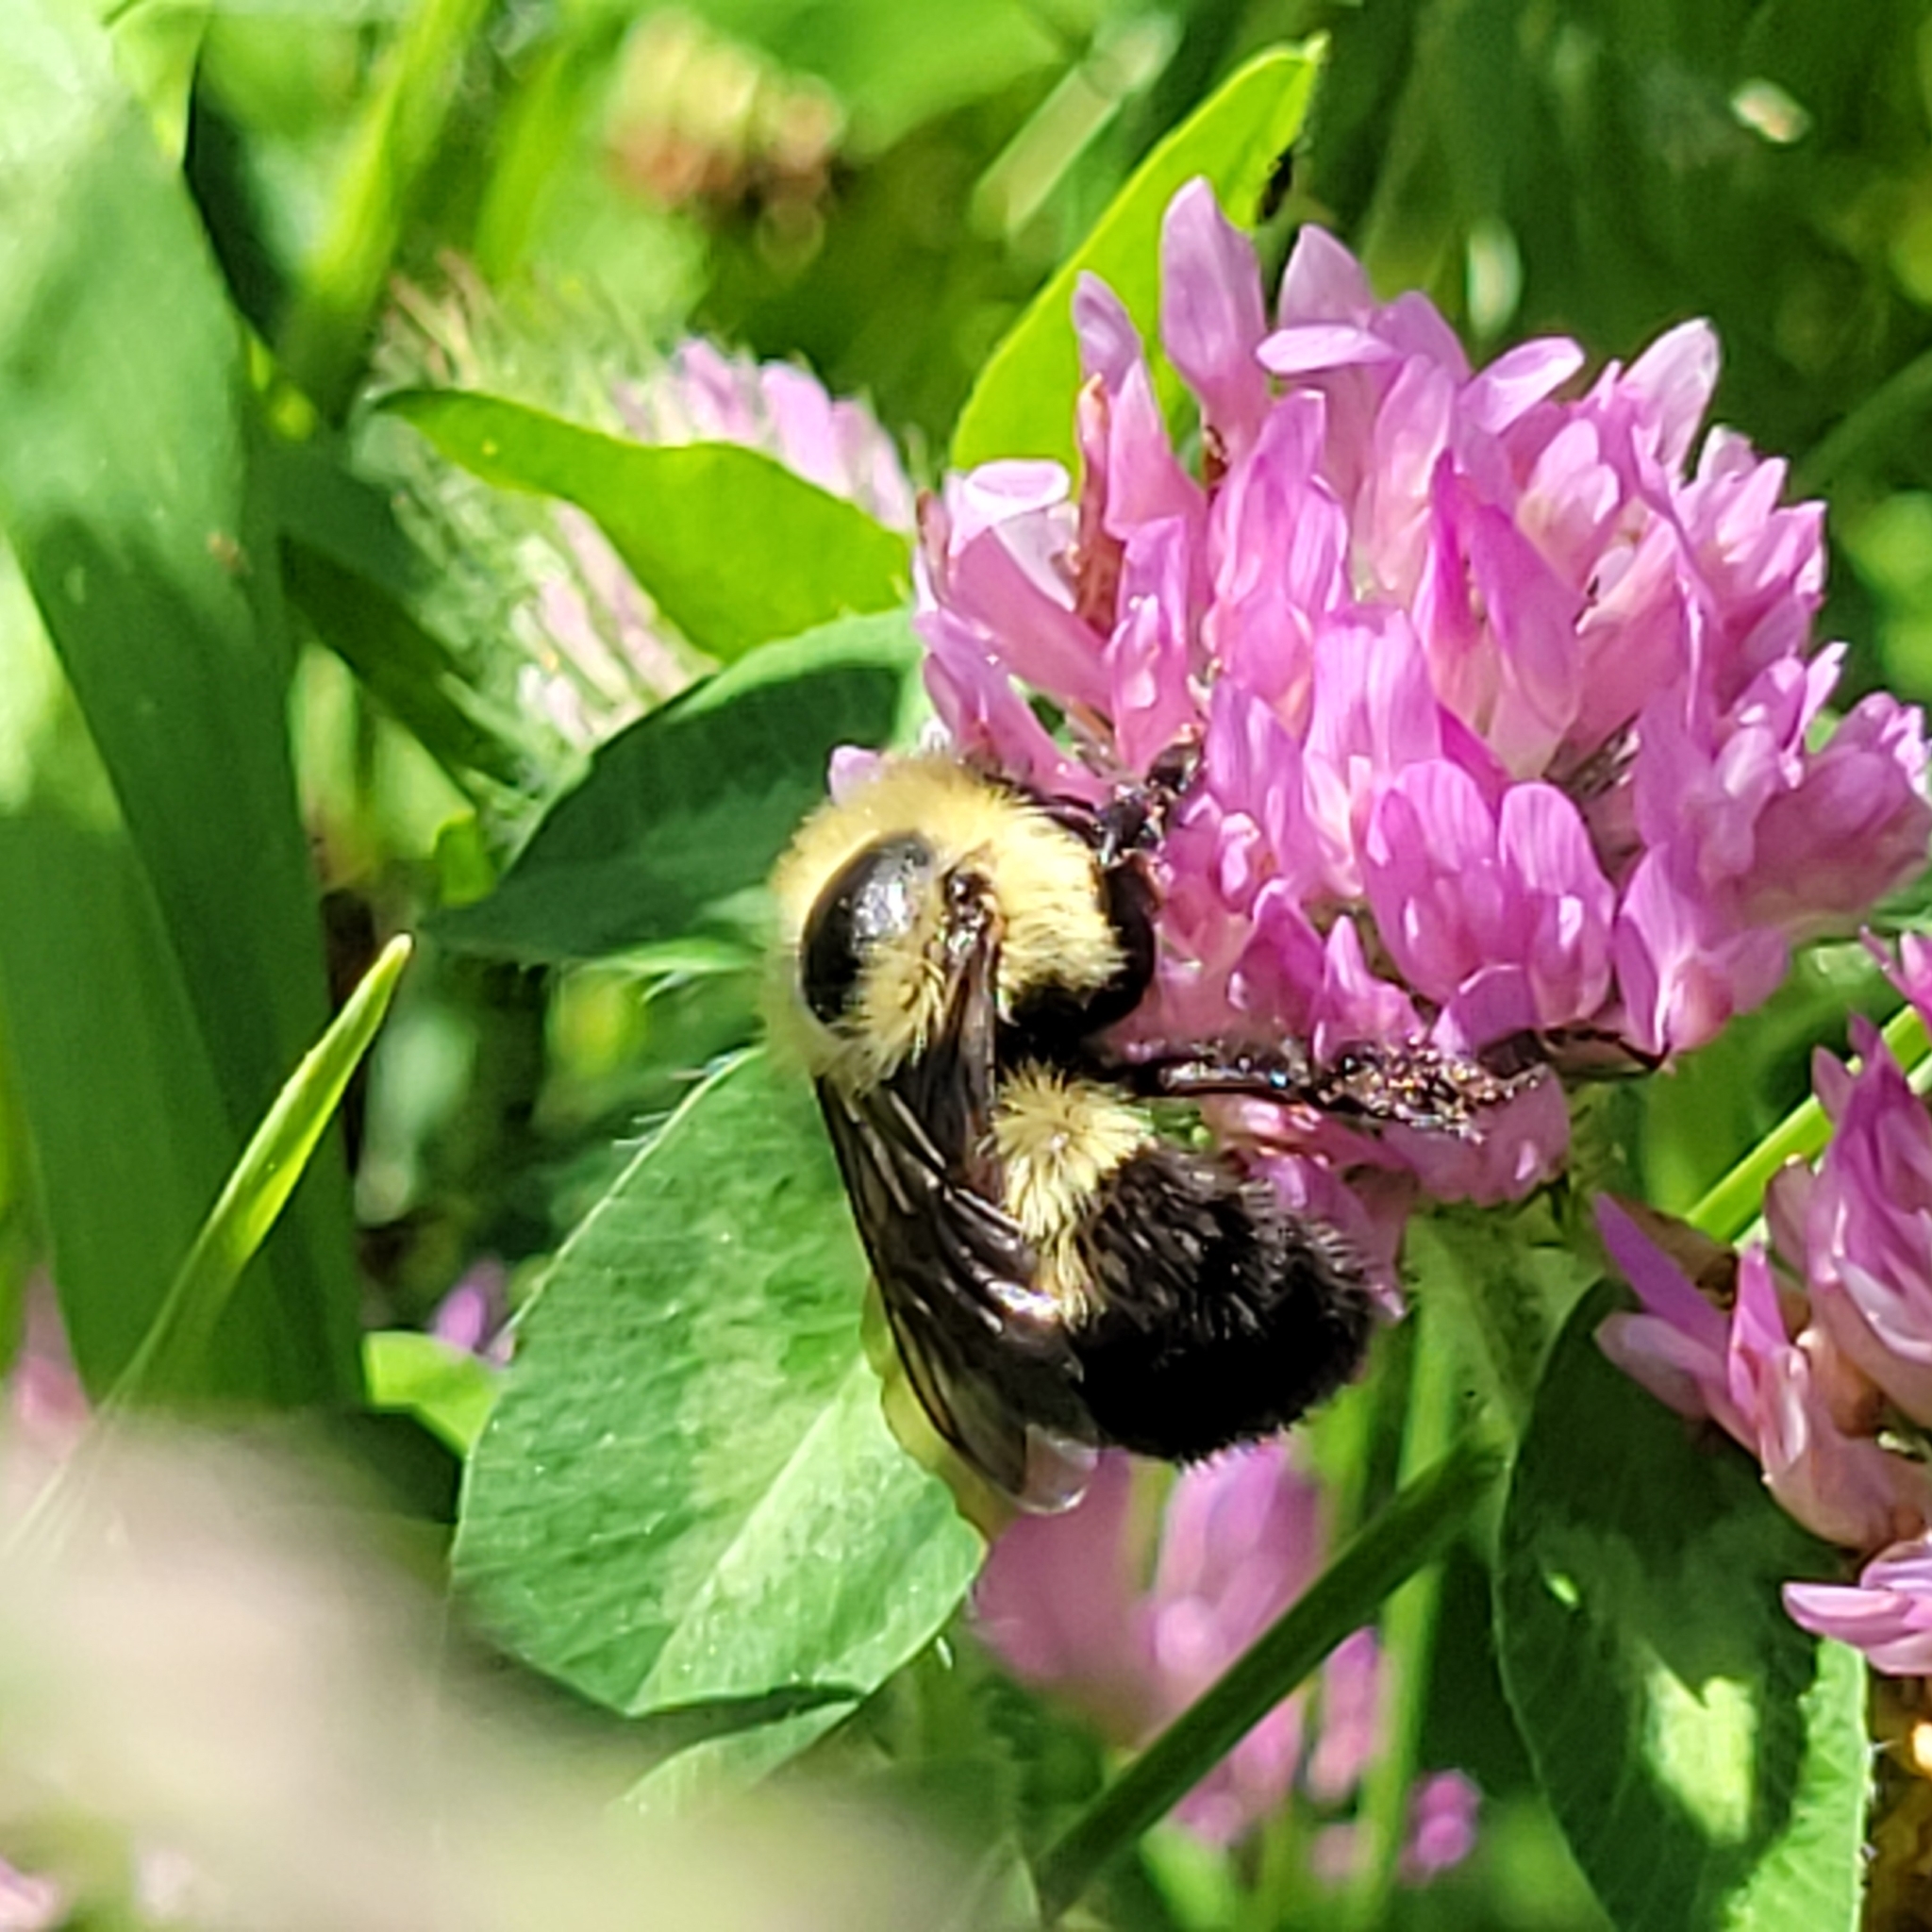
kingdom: Animalia
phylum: Arthropoda
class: Insecta
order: Hymenoptera
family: Apidae
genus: Bombus
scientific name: Bombus bimaculatus
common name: Two-spotted bumble bee
